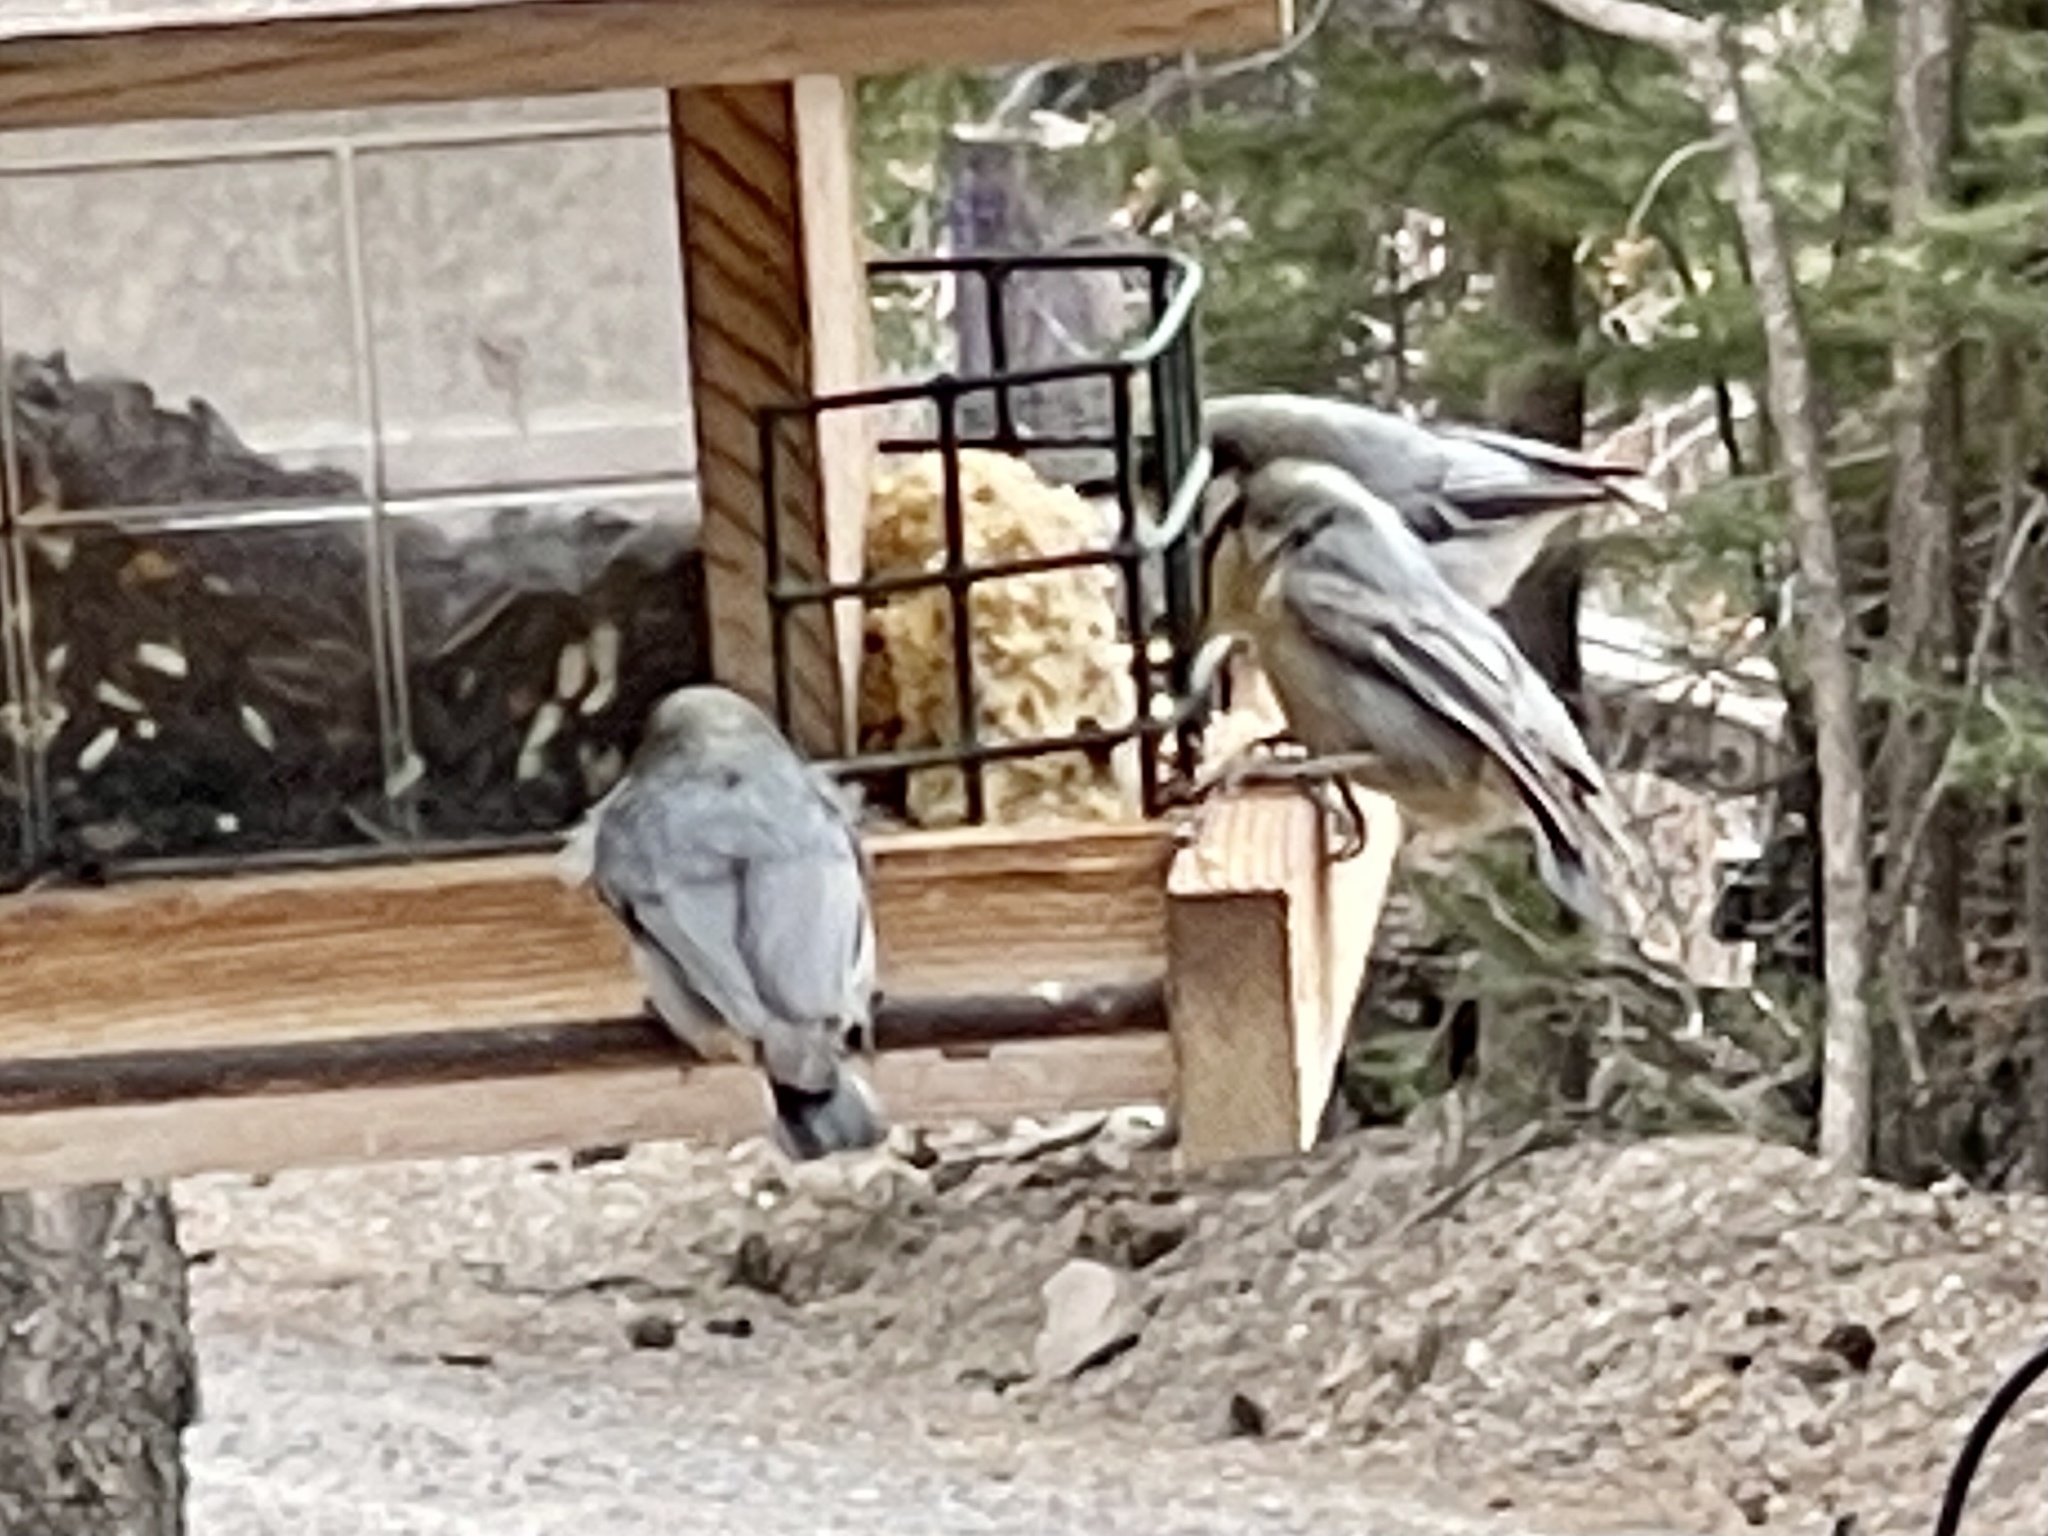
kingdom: Animalia
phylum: Chordata
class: Aves
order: Passeriformes
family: Sittidae
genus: Sitta
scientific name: Sitta pygmaea
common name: Pygmy nuthatch
